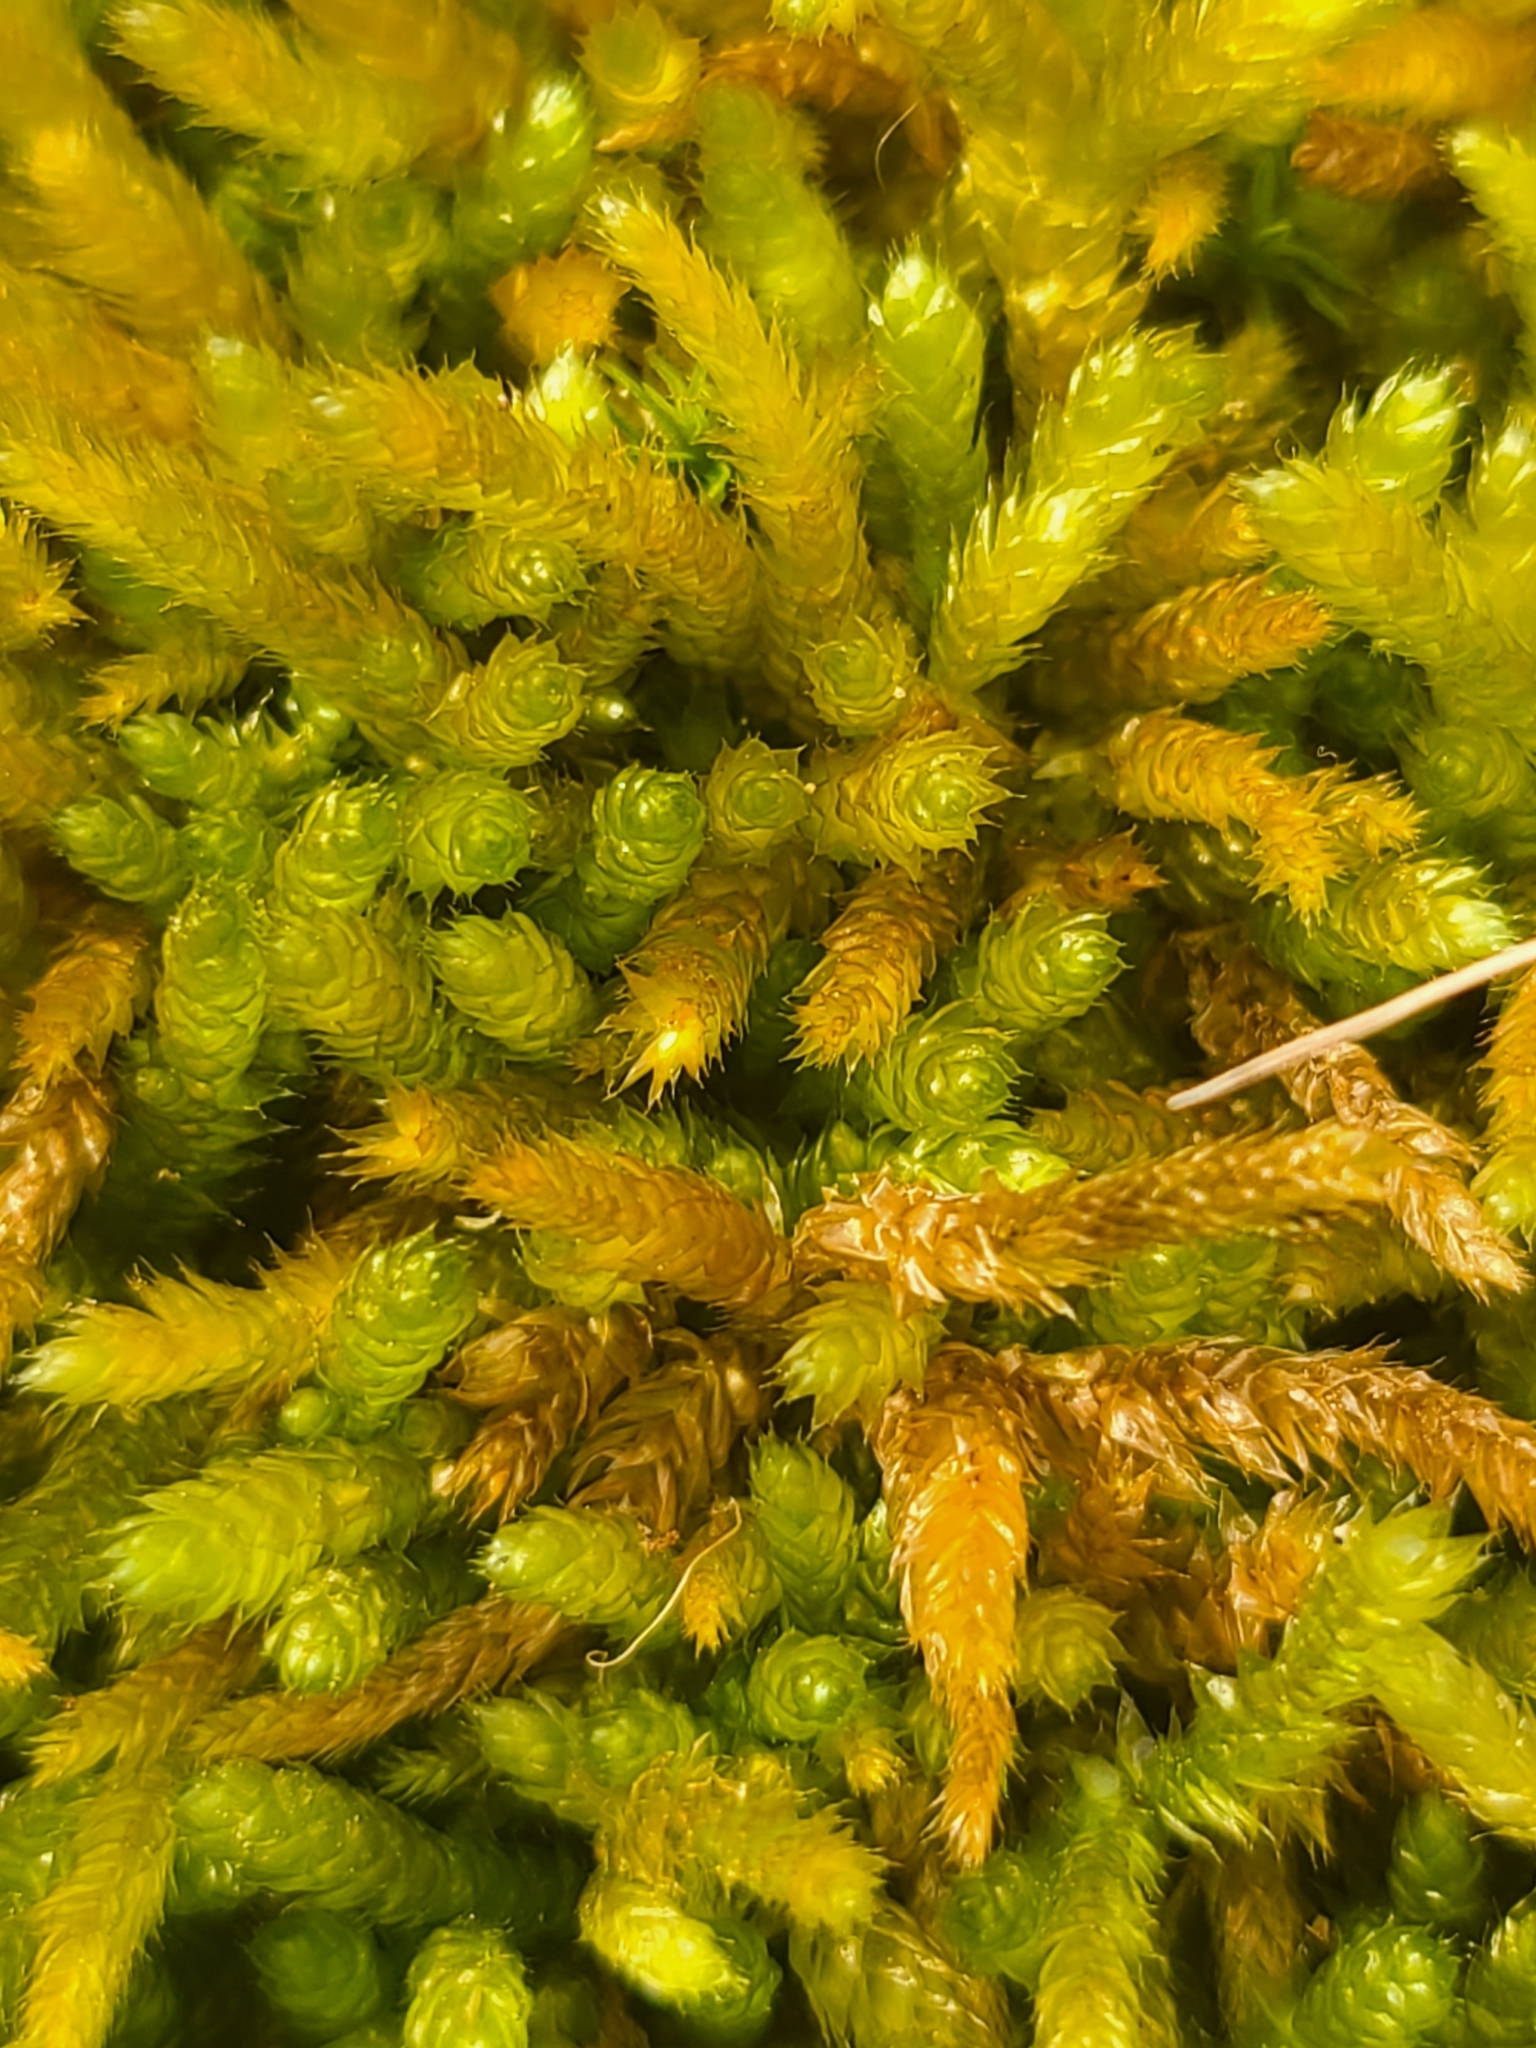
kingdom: Plantae
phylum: Bryophyta
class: Bryopsida
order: Hypnales
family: Brachytheciaceae
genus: Bryoandersonia
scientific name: Bryoandersonia illecebra
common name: Spoon-leaved moss
